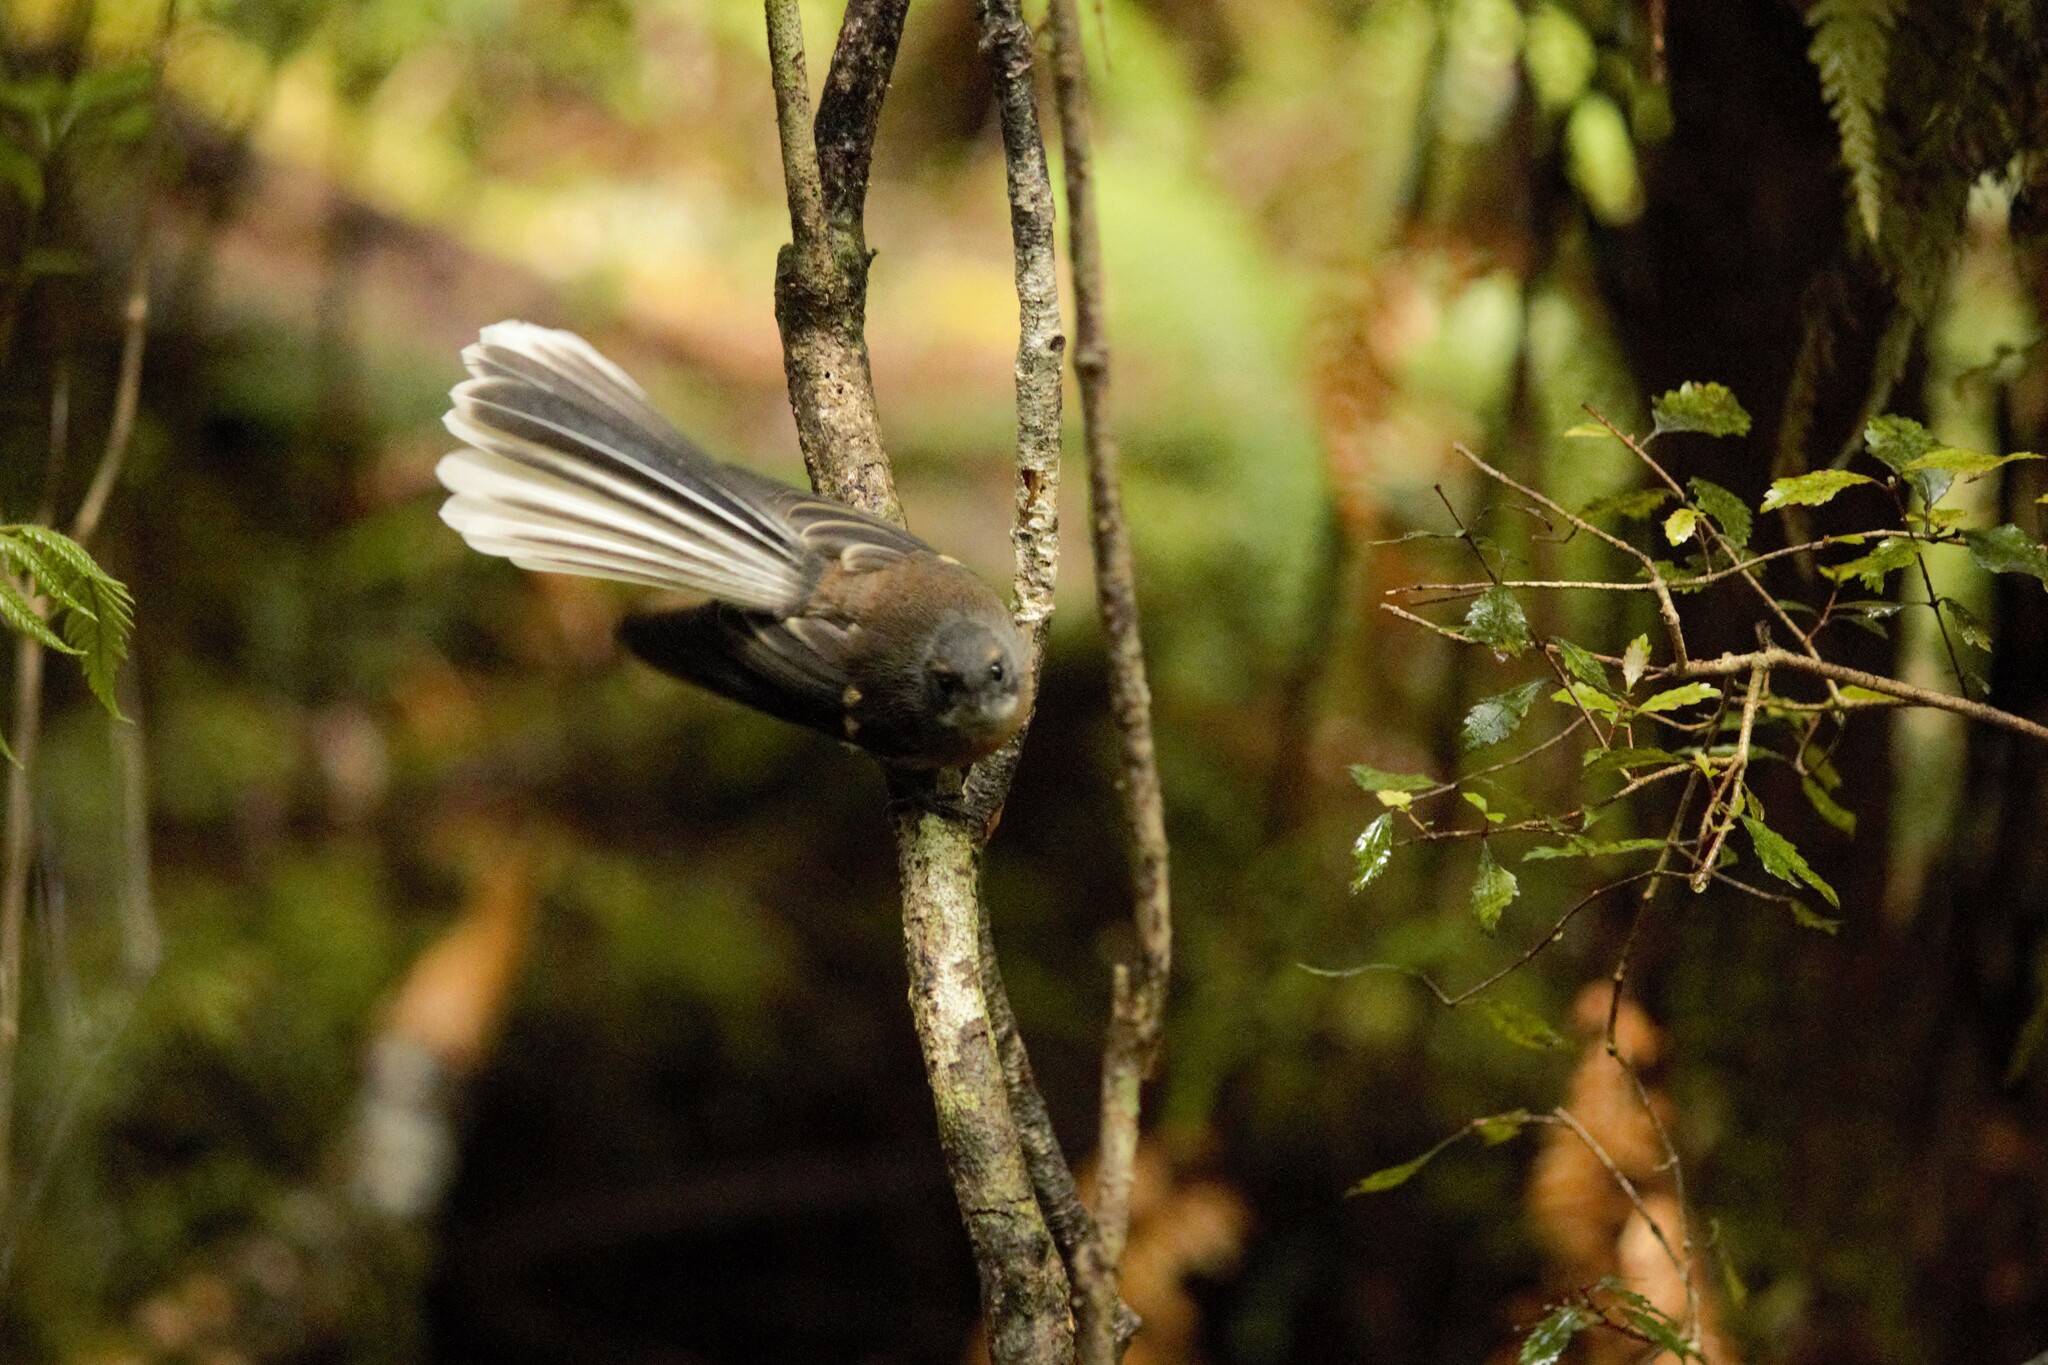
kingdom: Animalia
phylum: Chordata
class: Aves
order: Passeriformes
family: Rhipiduridae
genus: Rhipidura
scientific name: Rhipidura fuliginosa
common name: New zealand fantail
